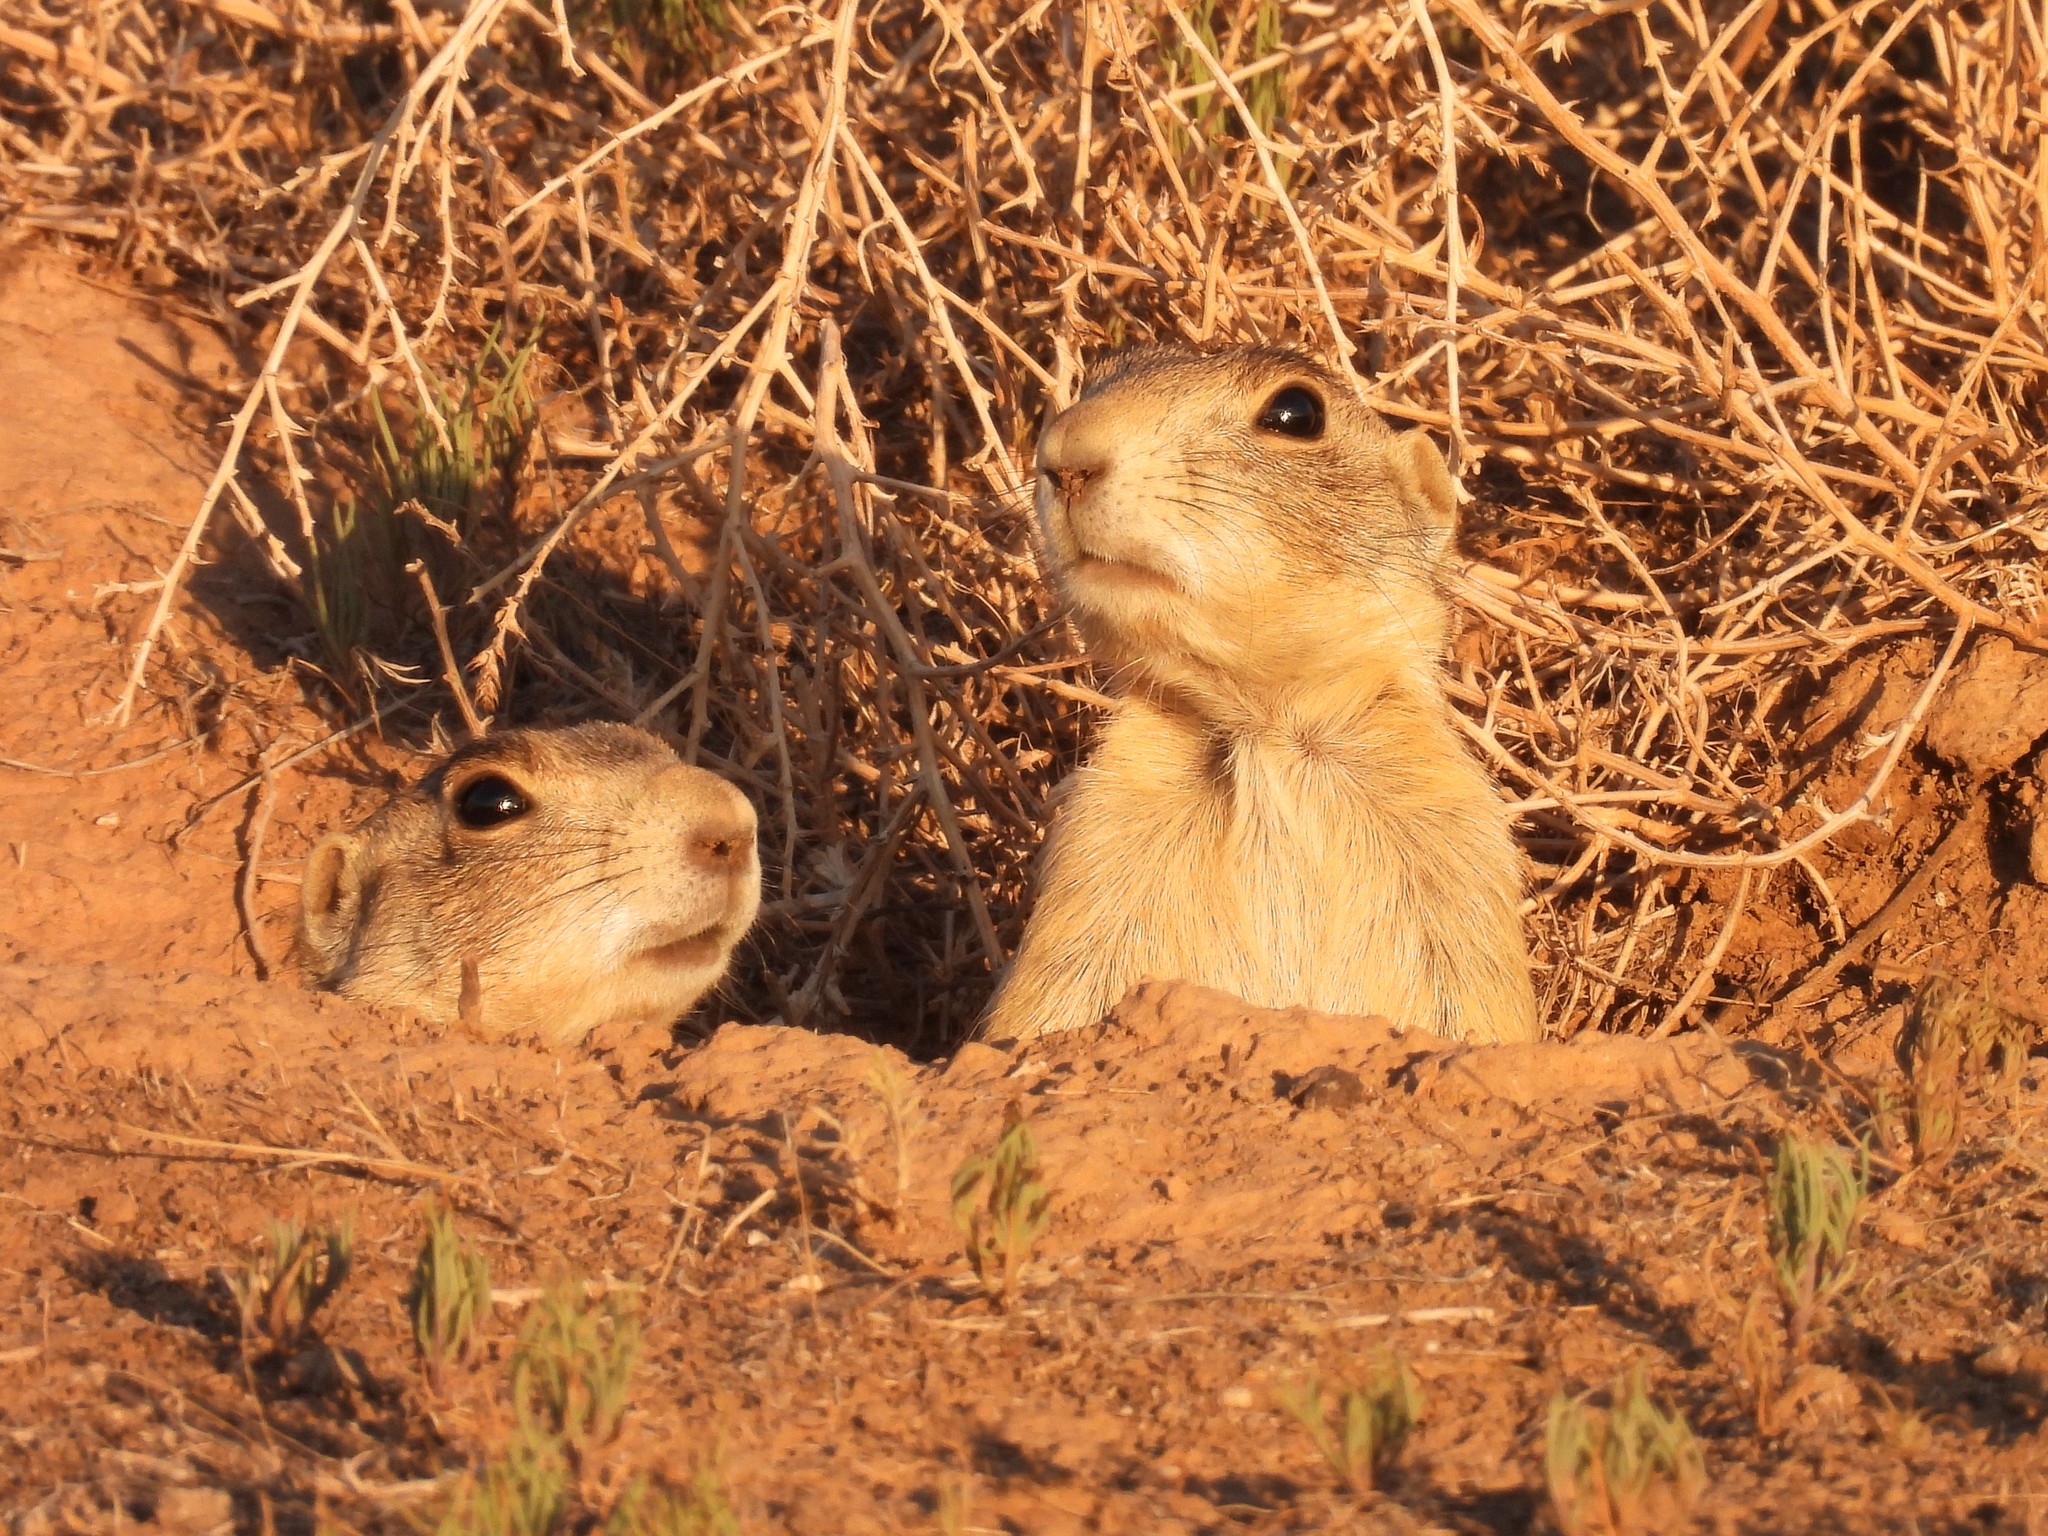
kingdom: Animalia
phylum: Chordata
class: Mammalia
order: Rodentia
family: Sciuridae
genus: Cynomys
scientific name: Cynomys leucurus
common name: White-tailed prairie dog
